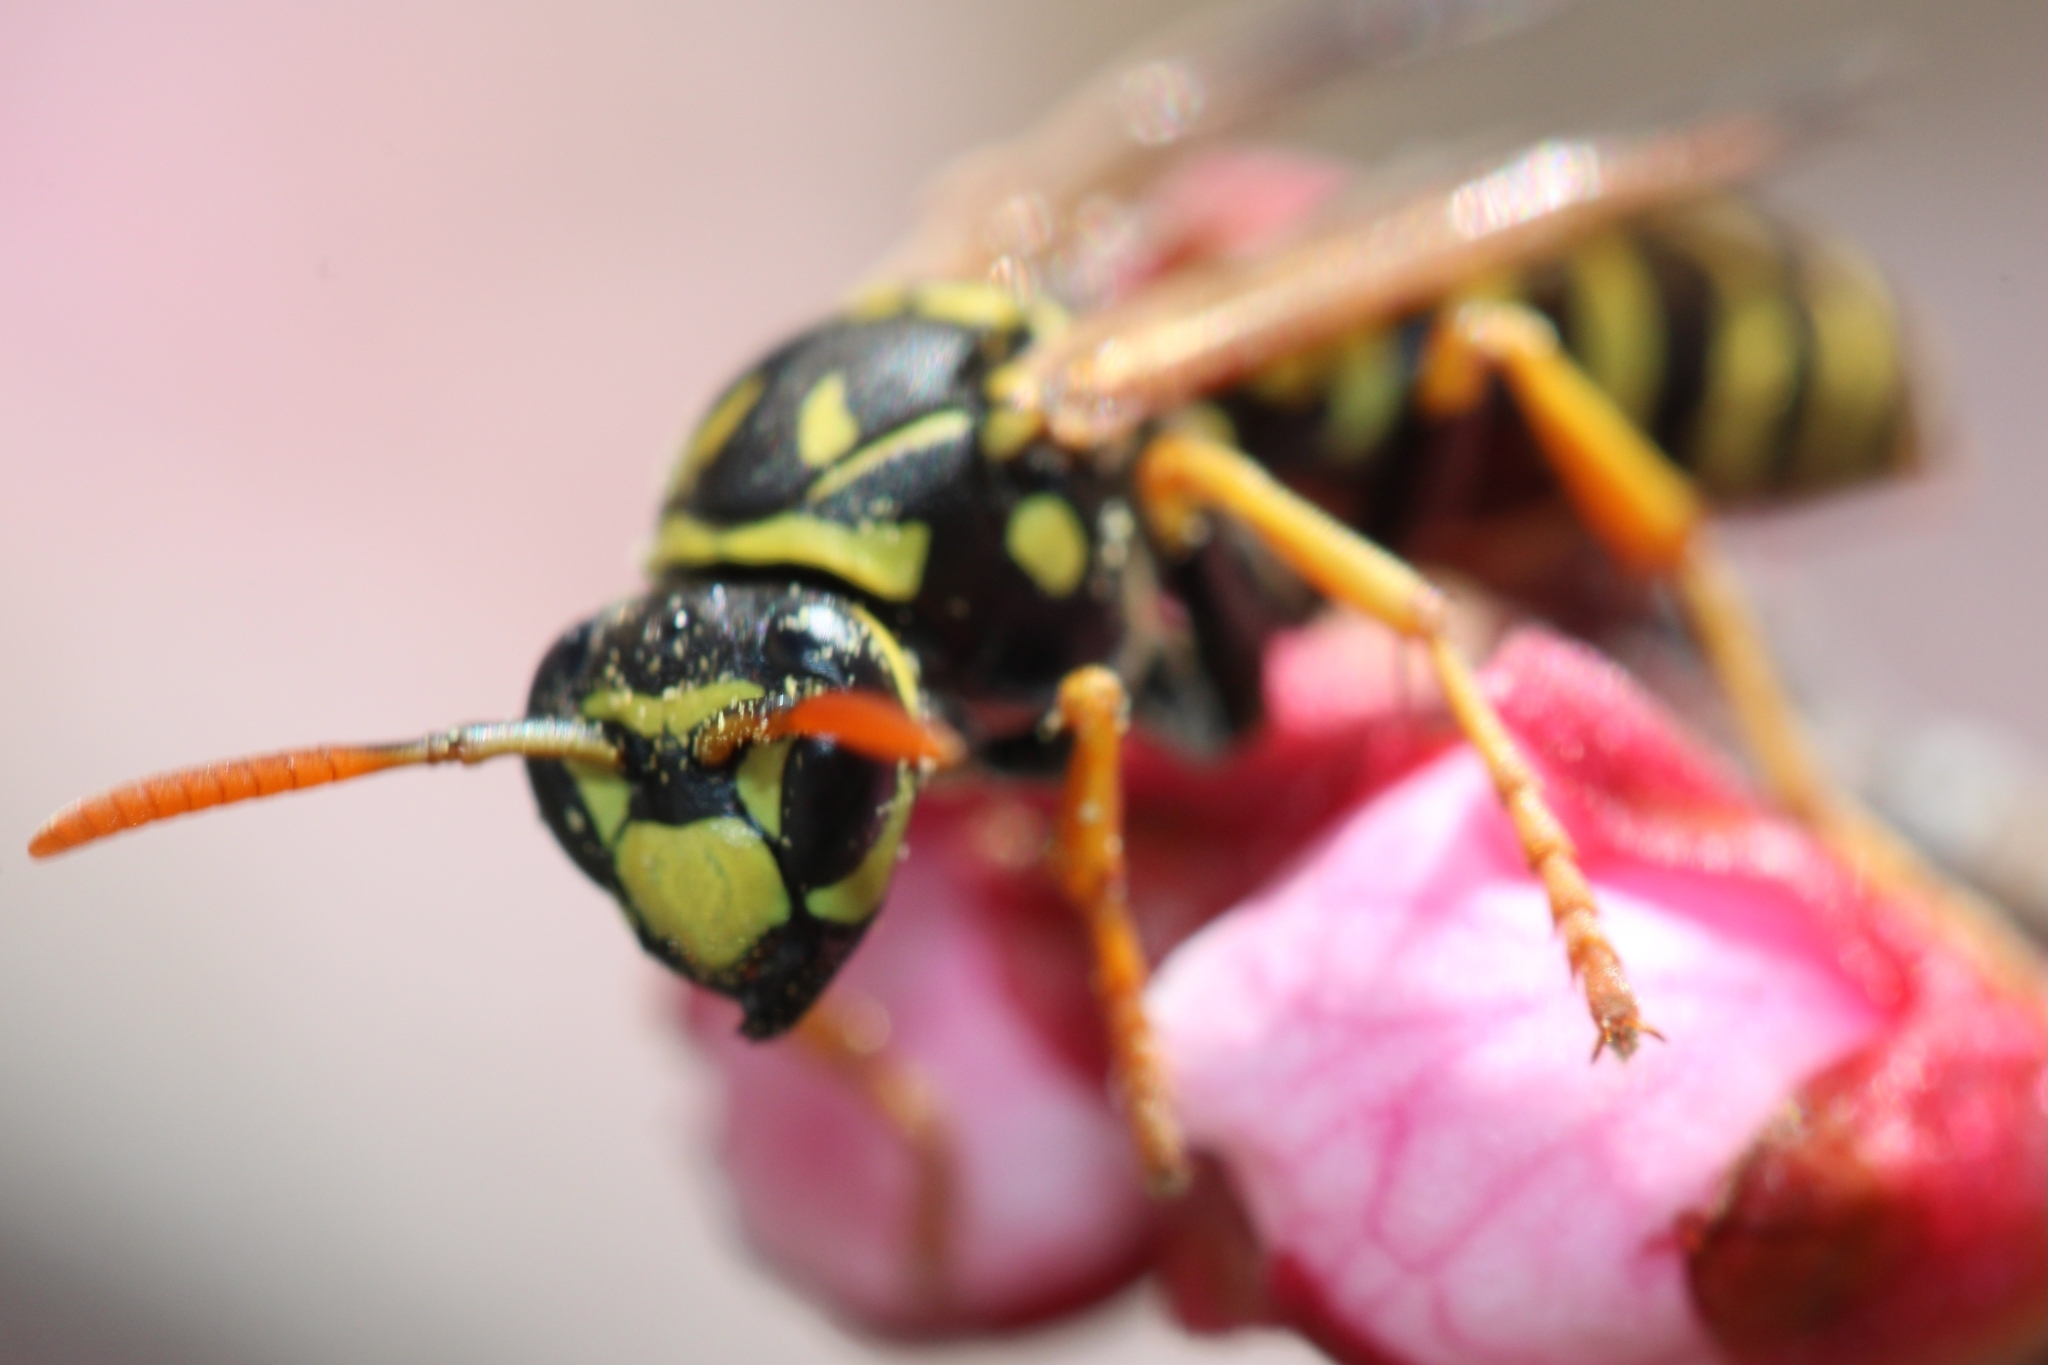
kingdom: Animalia
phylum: Arthropoda
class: Insecta
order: Hymenoptera
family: Eumenidae
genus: Polistes
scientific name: Polistes dominula
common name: Paper wasp
